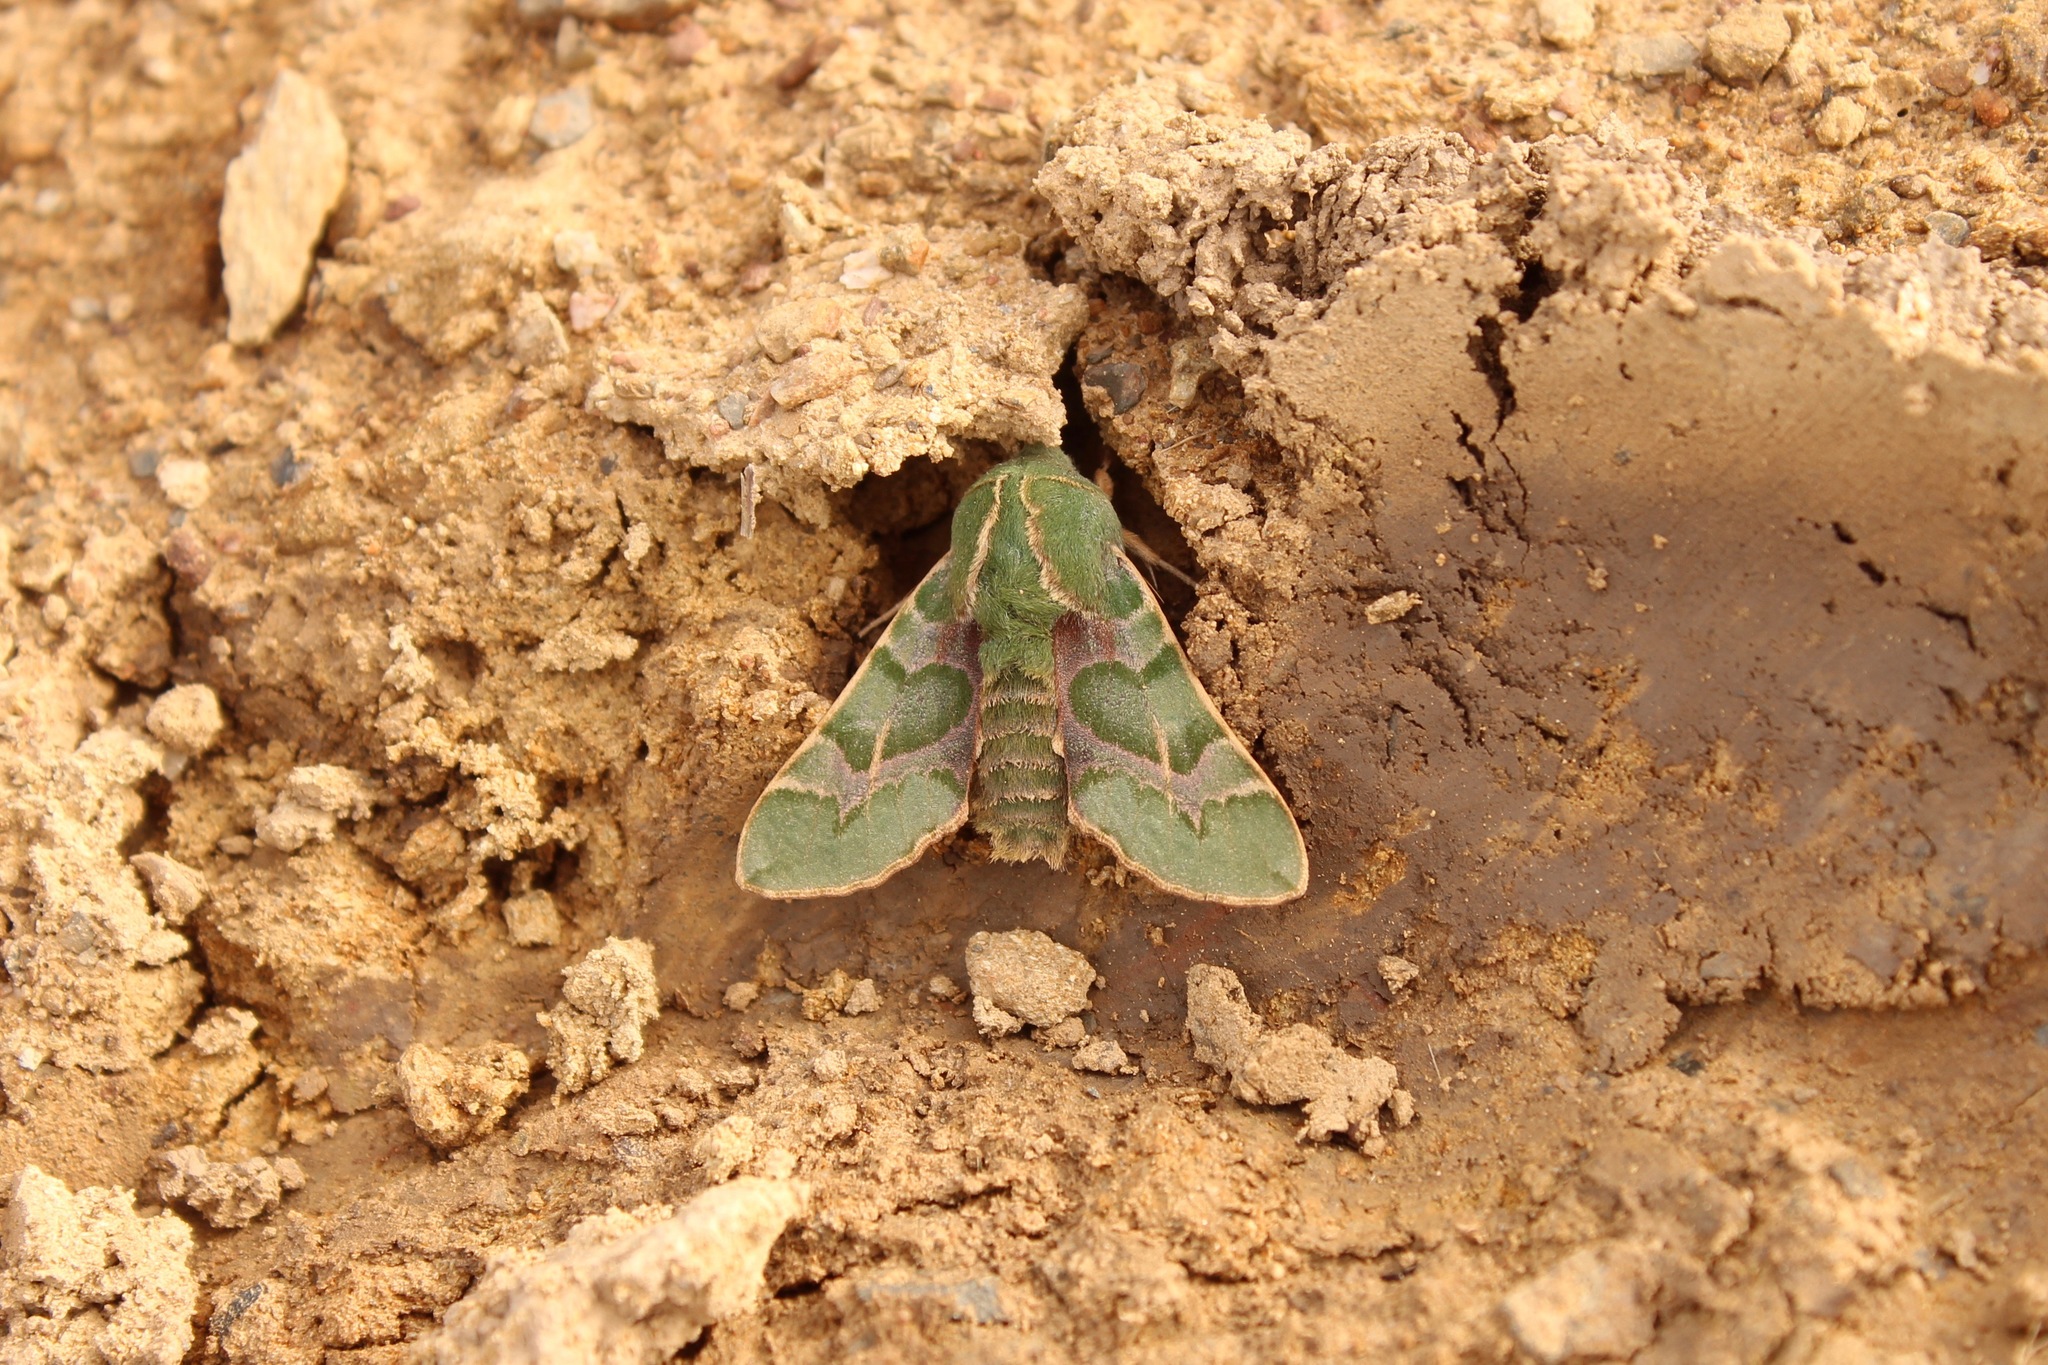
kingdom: Animalia
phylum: Arthropoda
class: Insecta
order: Lepidoptera
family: Sphingidae
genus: Proserpinus
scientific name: Proserpinus lucidus
